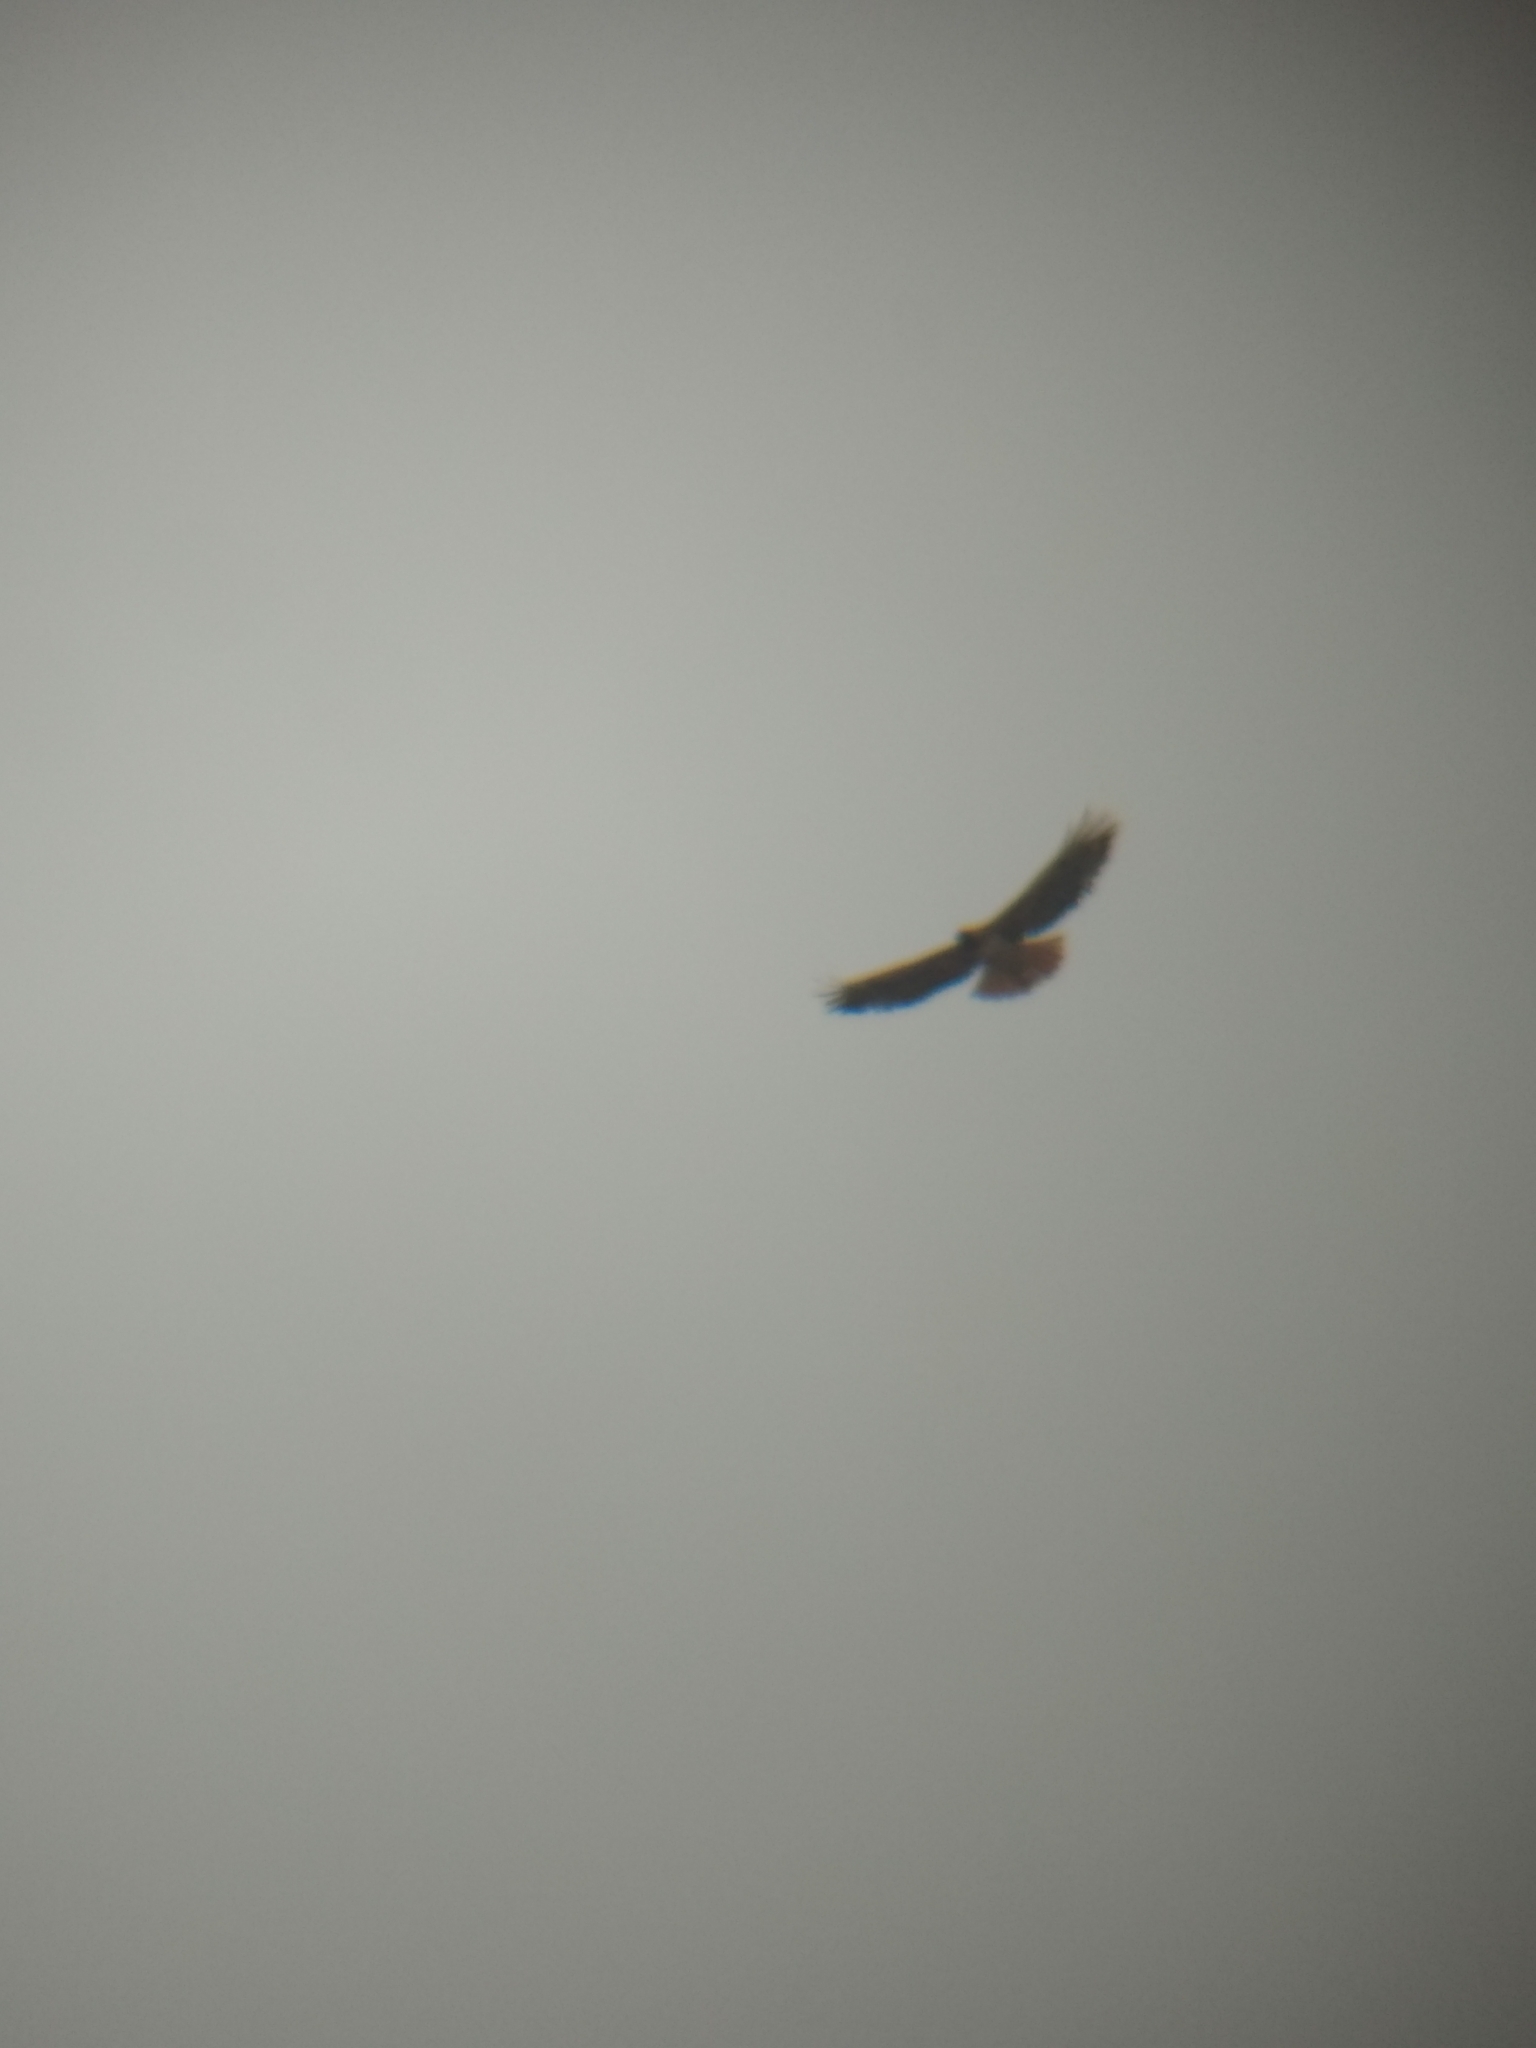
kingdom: Animalia
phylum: Chordata
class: Aves
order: Accipitriformes
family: Accipitridae
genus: Buteo
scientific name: Buteo jamaicensis
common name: Red-tailed hawk
